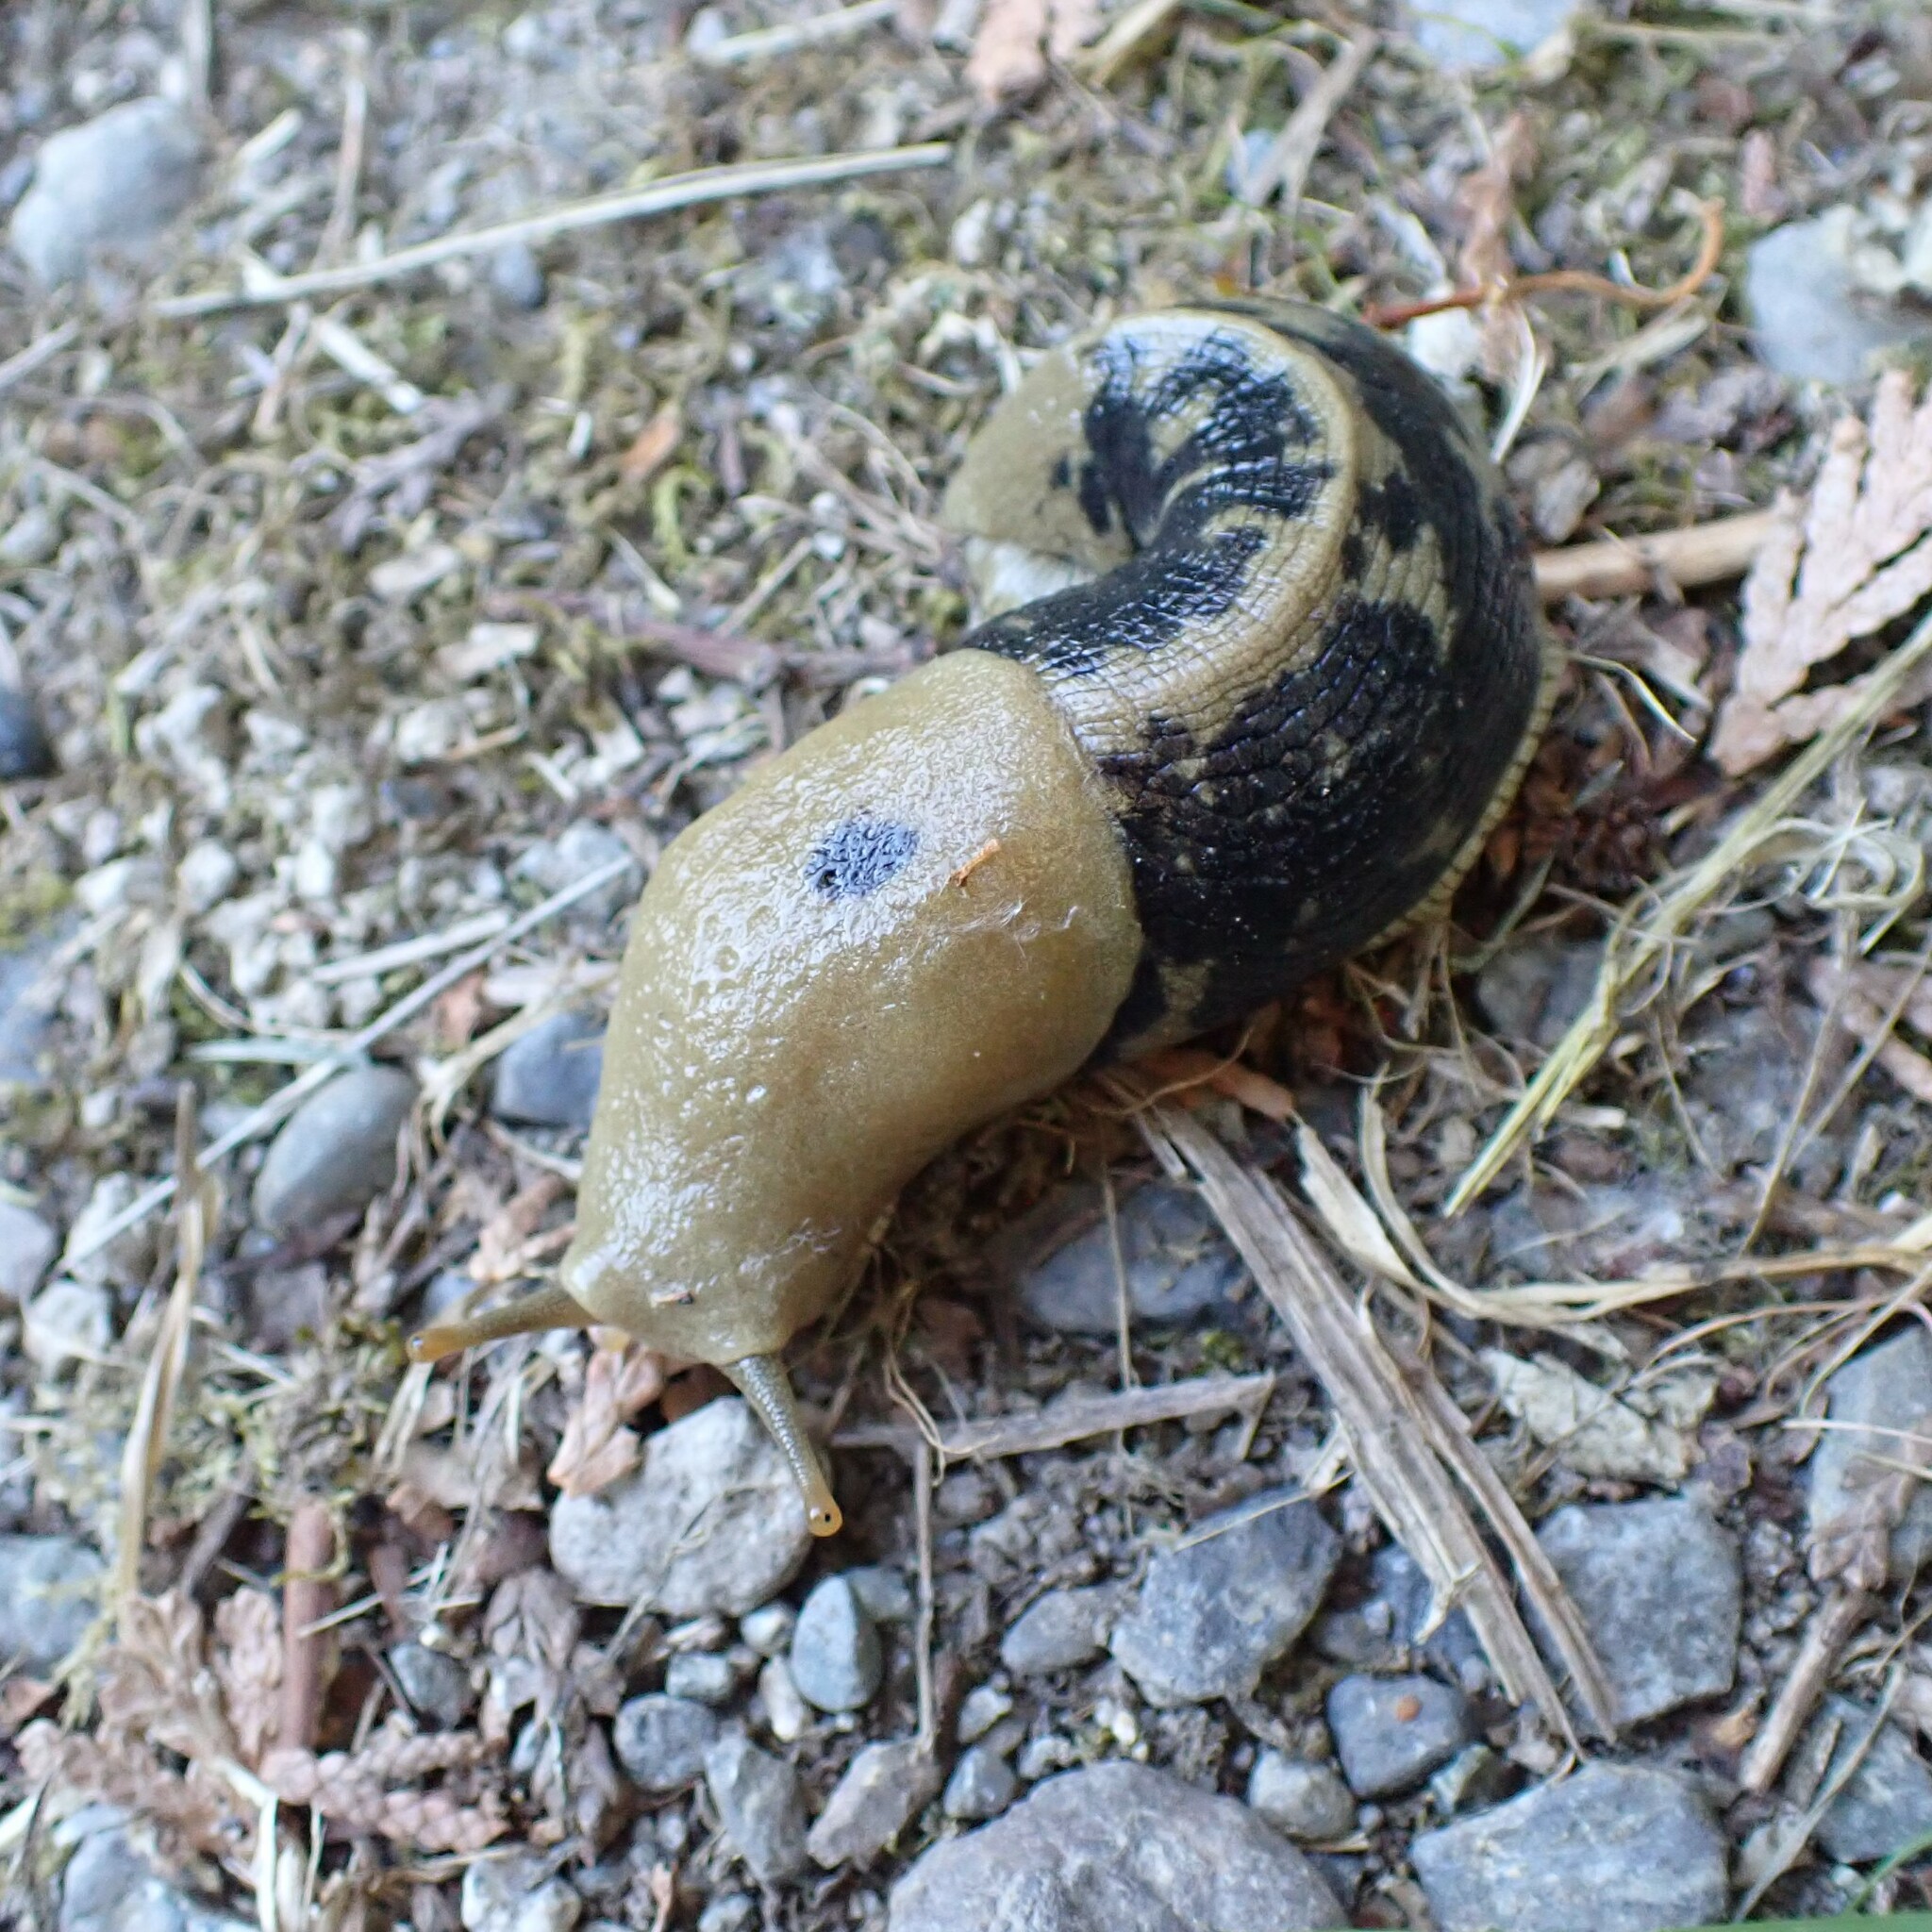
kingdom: Animalia
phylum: Mollusca
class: Gastropoda
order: Stylommatophora
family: Ariolimacidae
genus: Ariolimax
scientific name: Ariolimax columbianus
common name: Pacific banana slug
